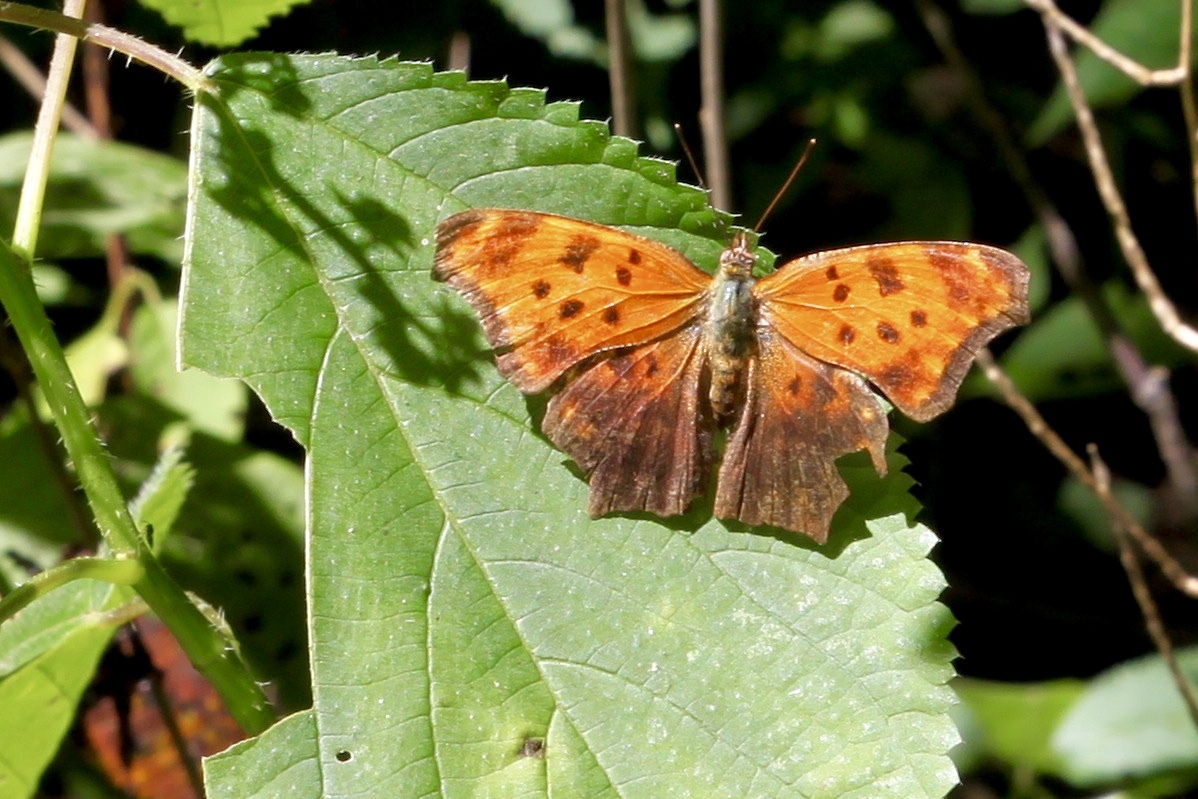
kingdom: Animalia
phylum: Arthropoda
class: Insecta
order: Lepidoptera
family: Nymphalidae
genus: Polygonia
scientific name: Polygonia comma
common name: Eastern comma
